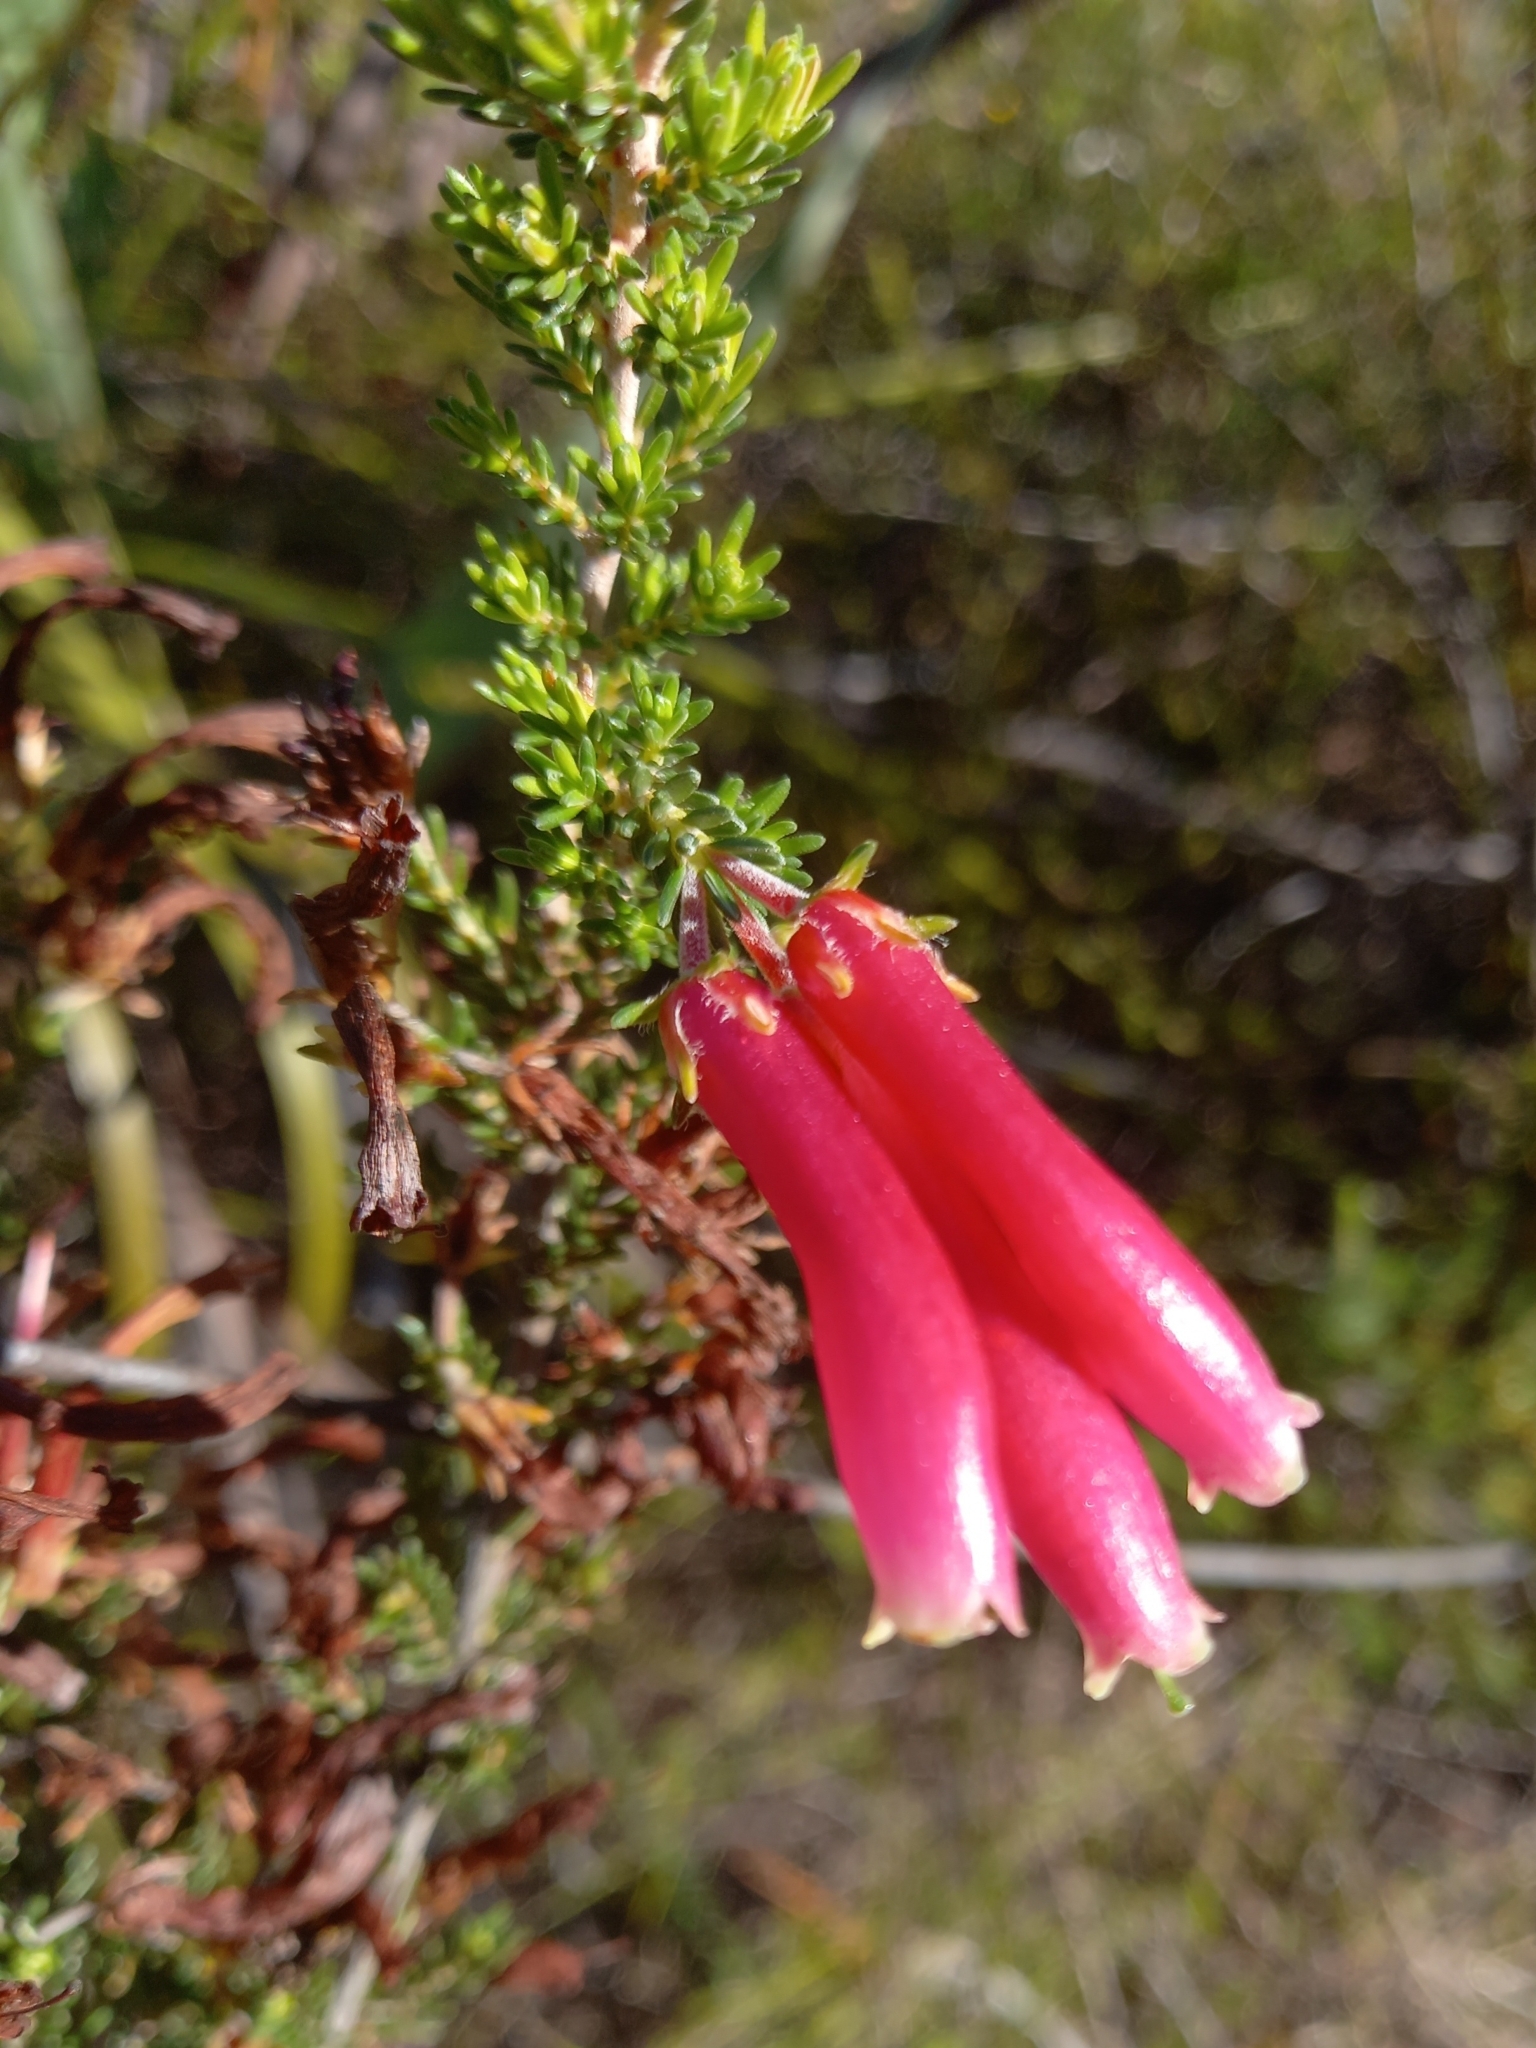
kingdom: Plantae
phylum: Tracheophyta
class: Magnoliopsida
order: Ericales
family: Ericaceae
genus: Erica
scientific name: Erica discolor
